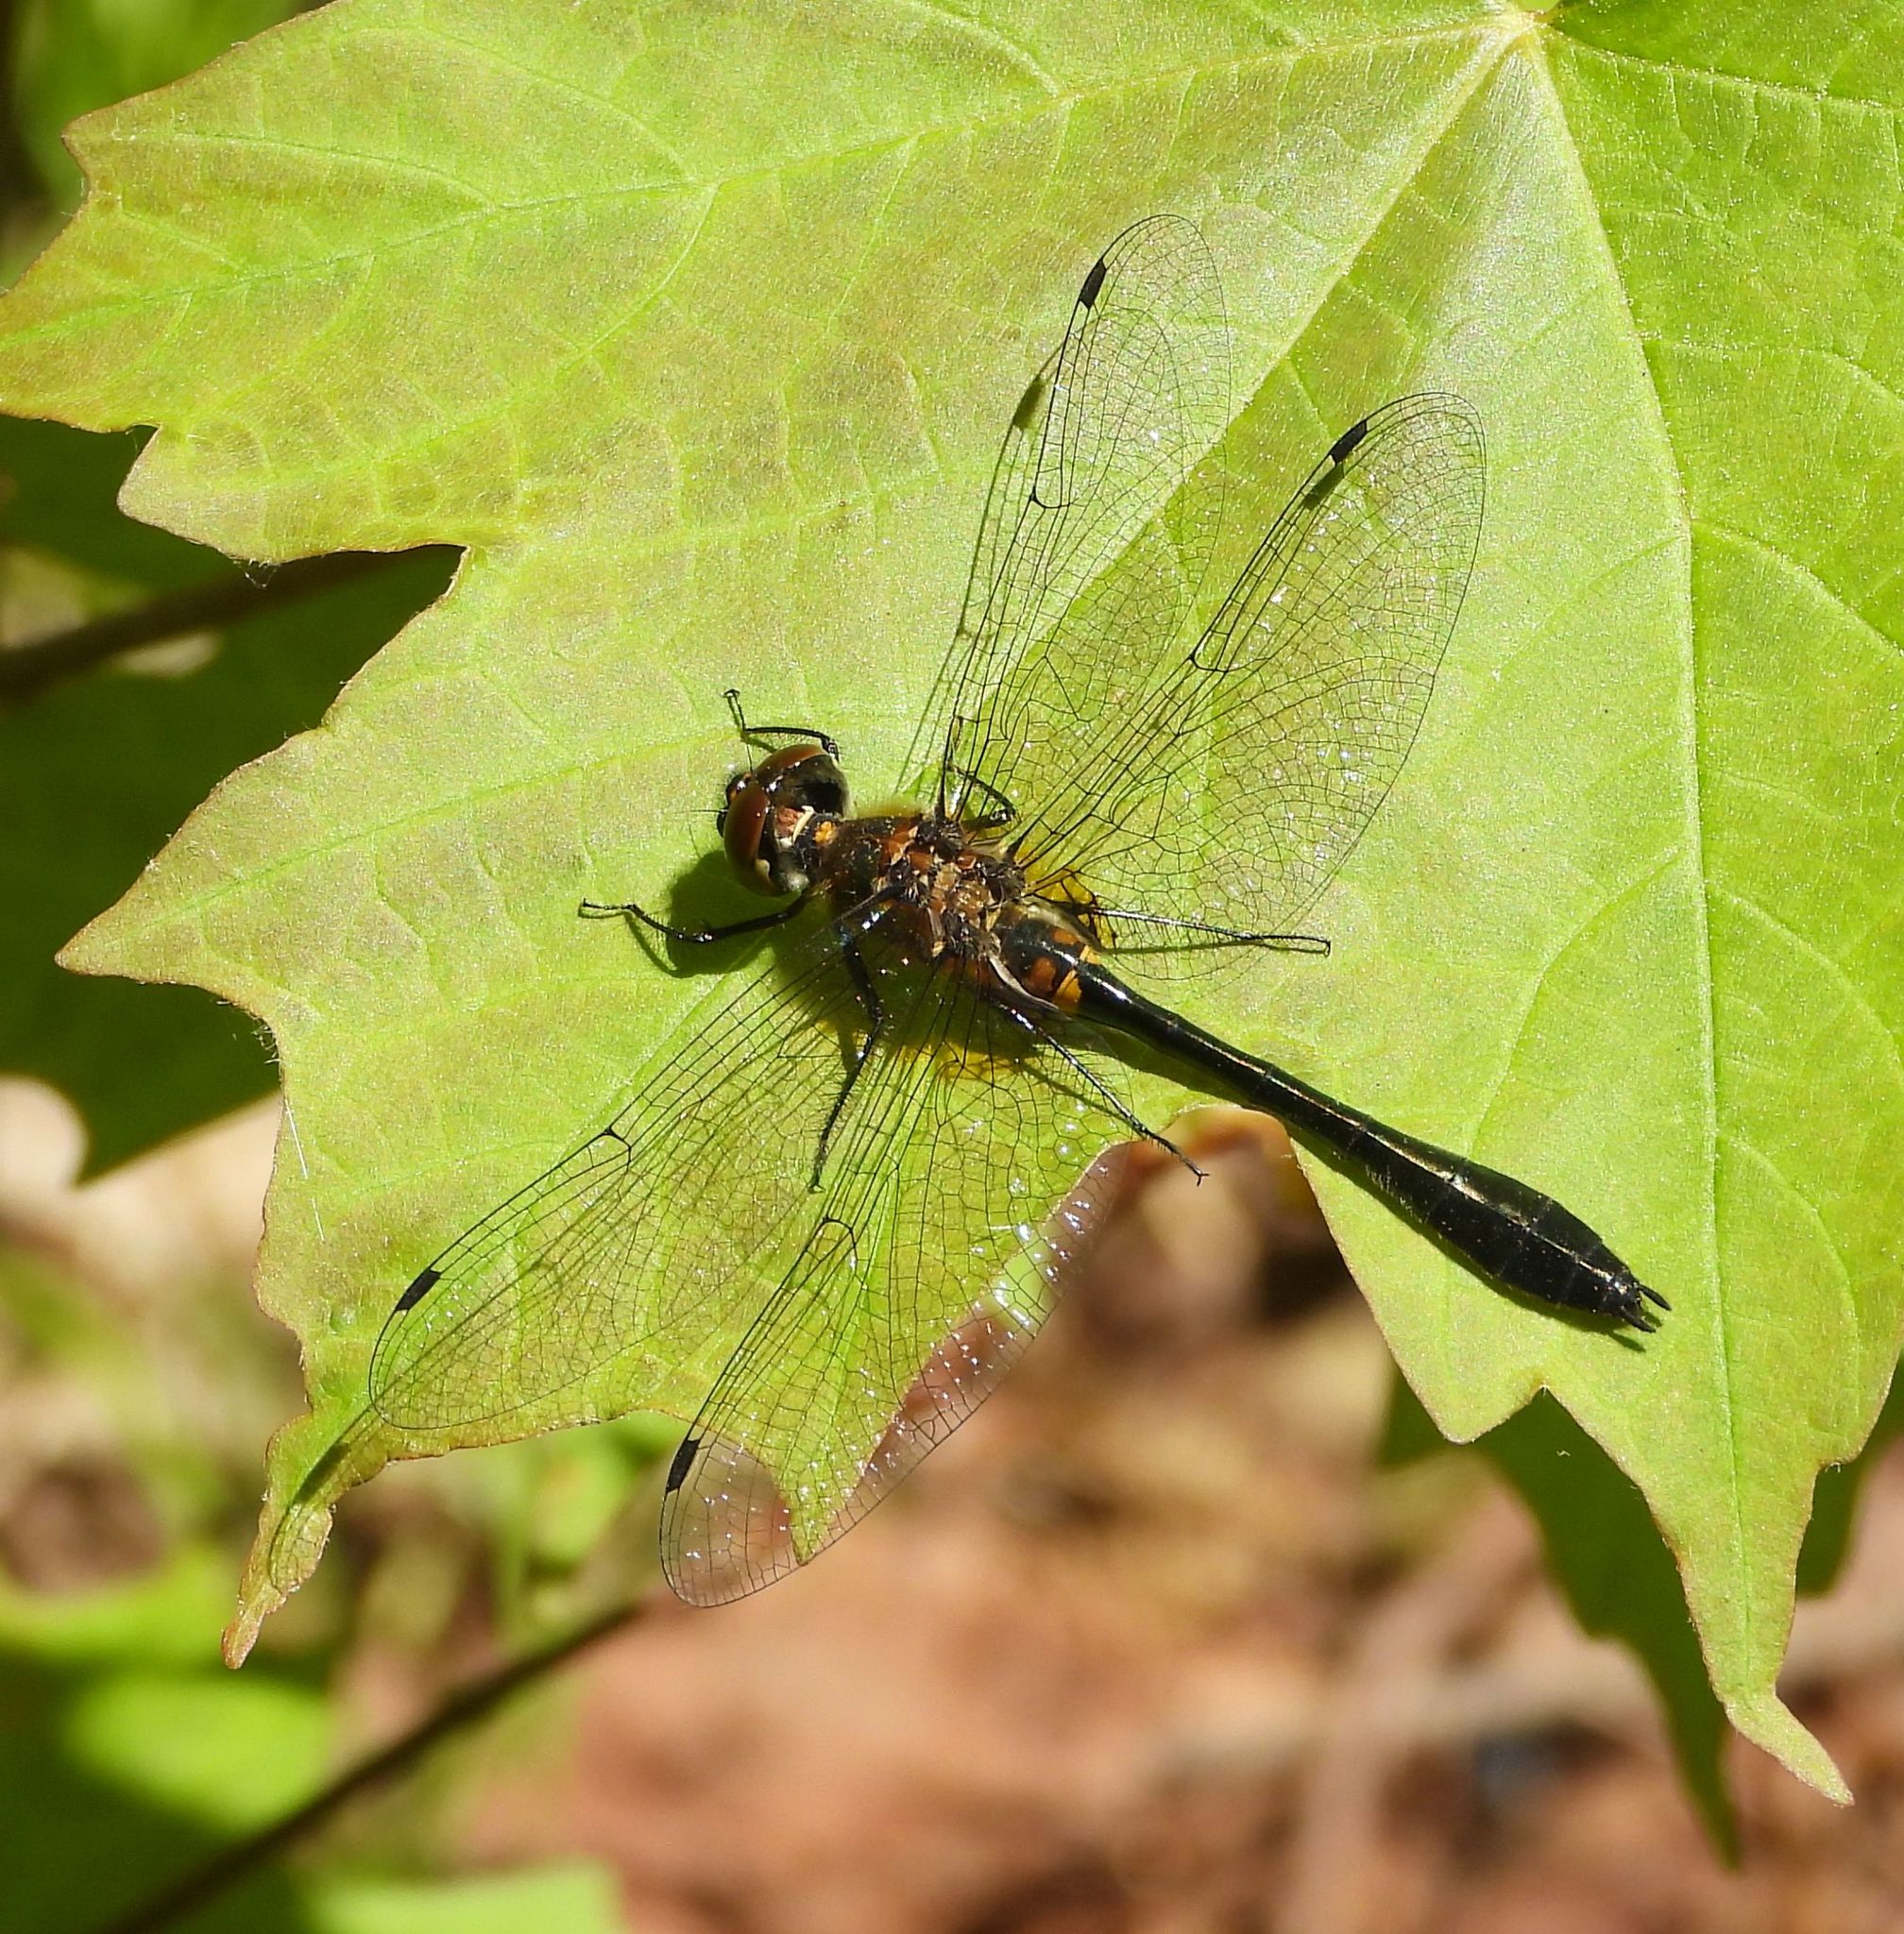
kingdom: Animalia
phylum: Arthropoda
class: Insecta
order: Odonata
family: Corduliidae
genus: Dorocordulia
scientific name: Dorocordulia libera
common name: Racket-tailed emerald
